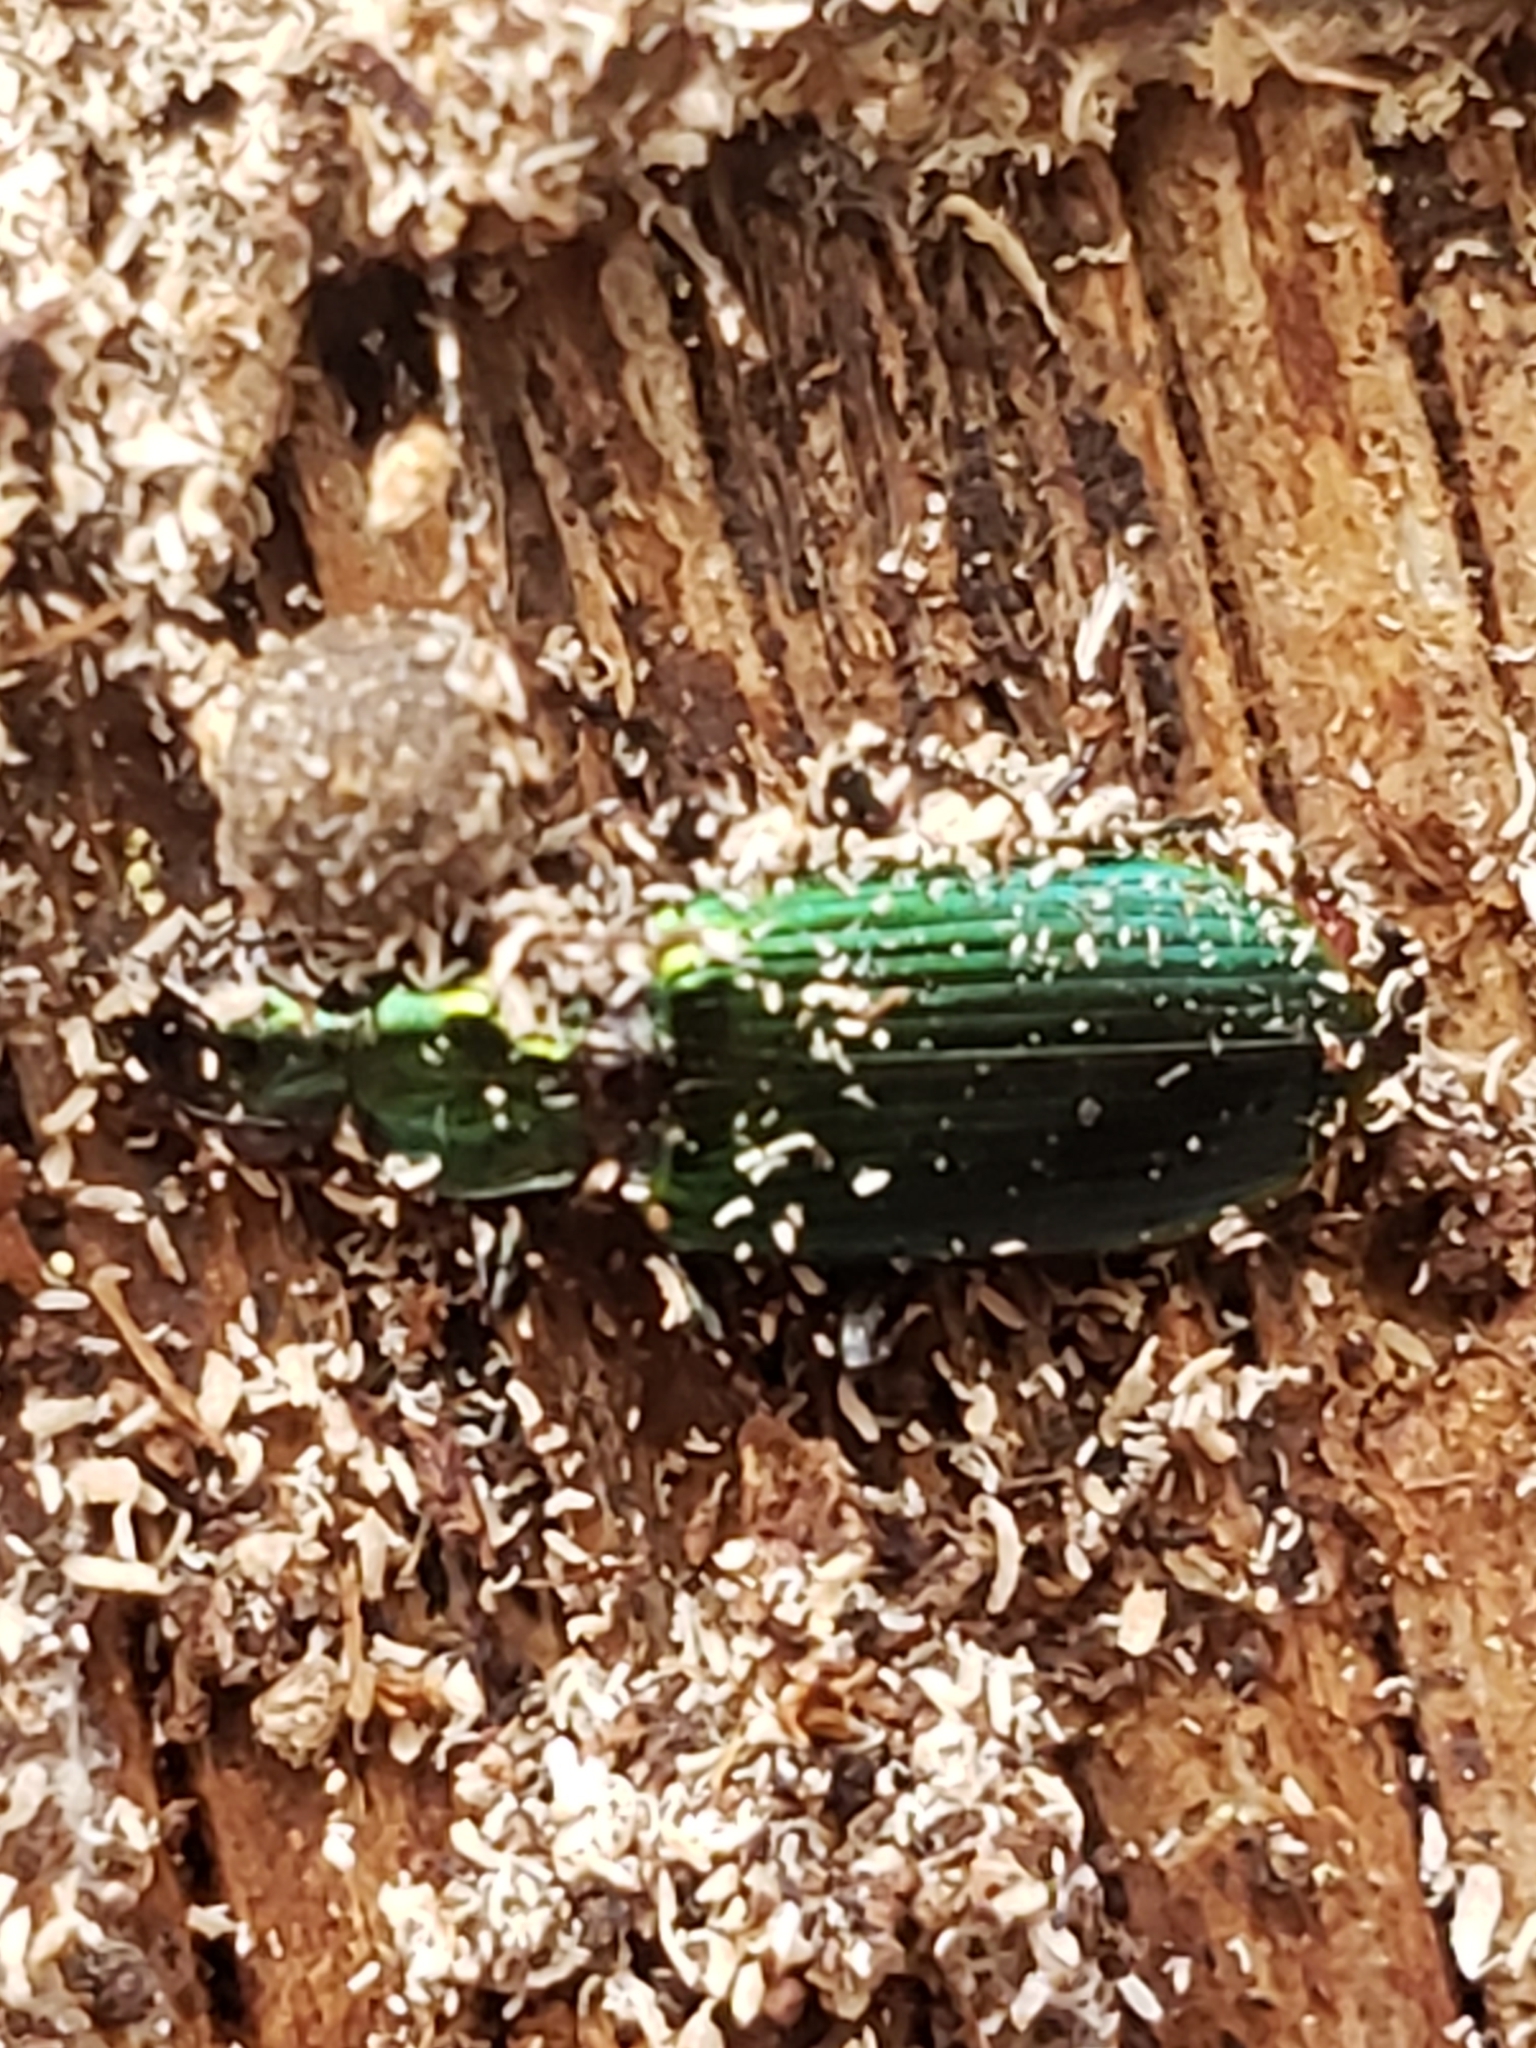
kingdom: Animalia
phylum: Arthropoda
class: Insecta
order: Coleoptera
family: Carabidae
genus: Calleida
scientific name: Calleida viridipennis
